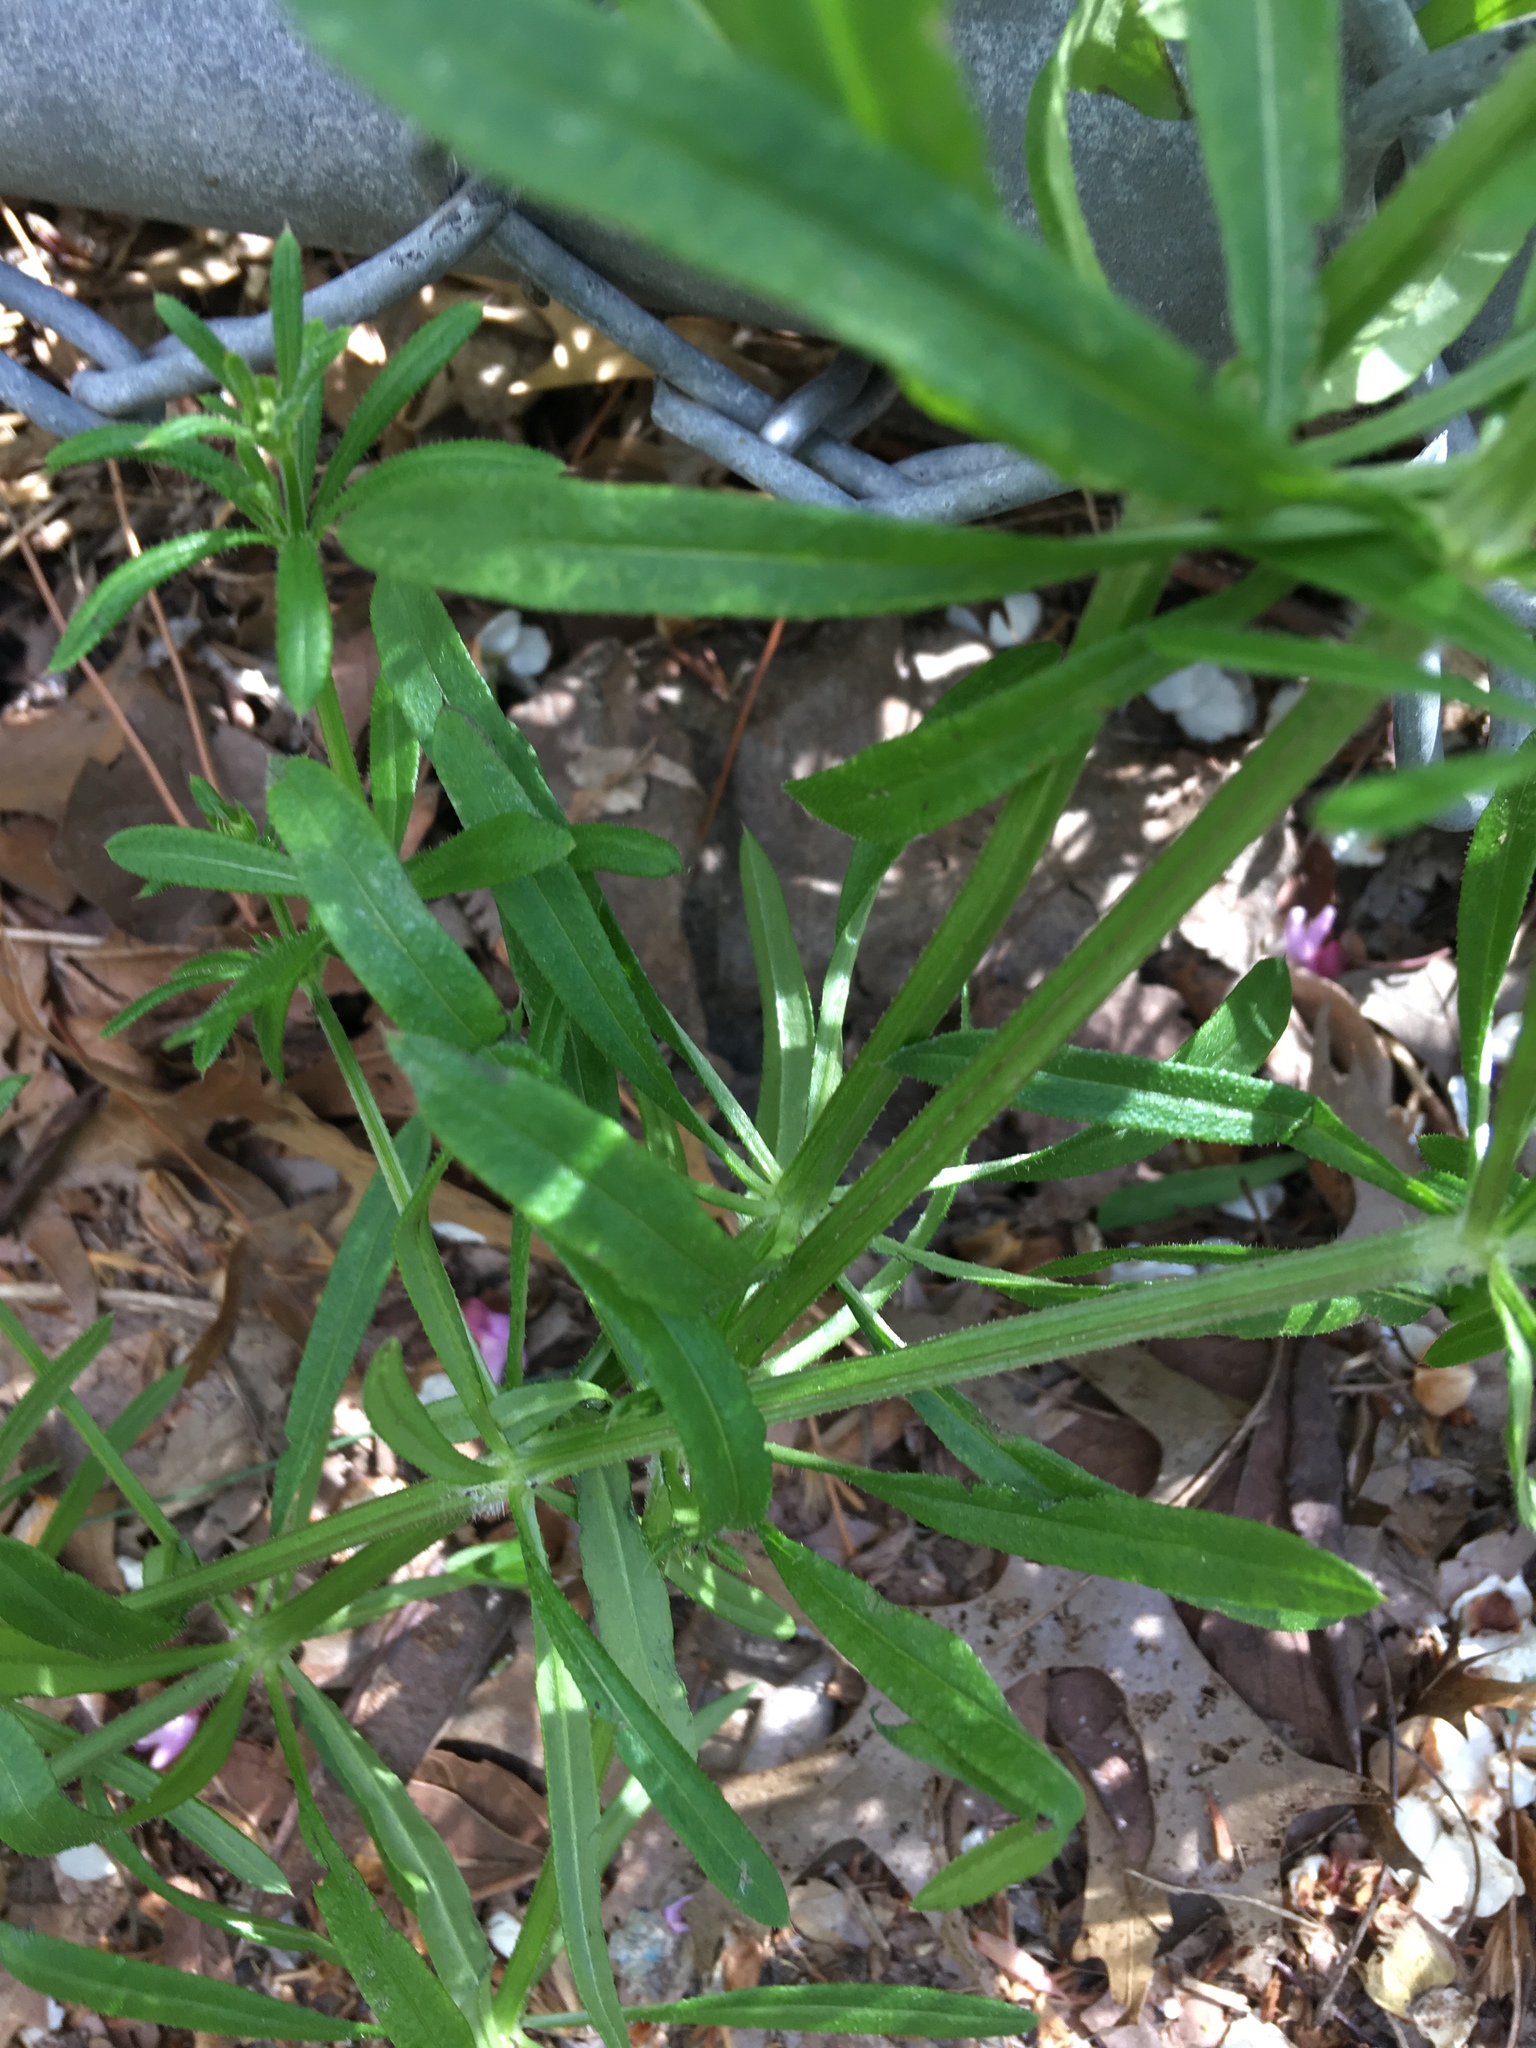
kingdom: Plantae
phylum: Tracheophyta
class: Magnoliopsida
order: Gentianales
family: Rubiaceae
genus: Galium
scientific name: Galium aparine
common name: Cleavers
